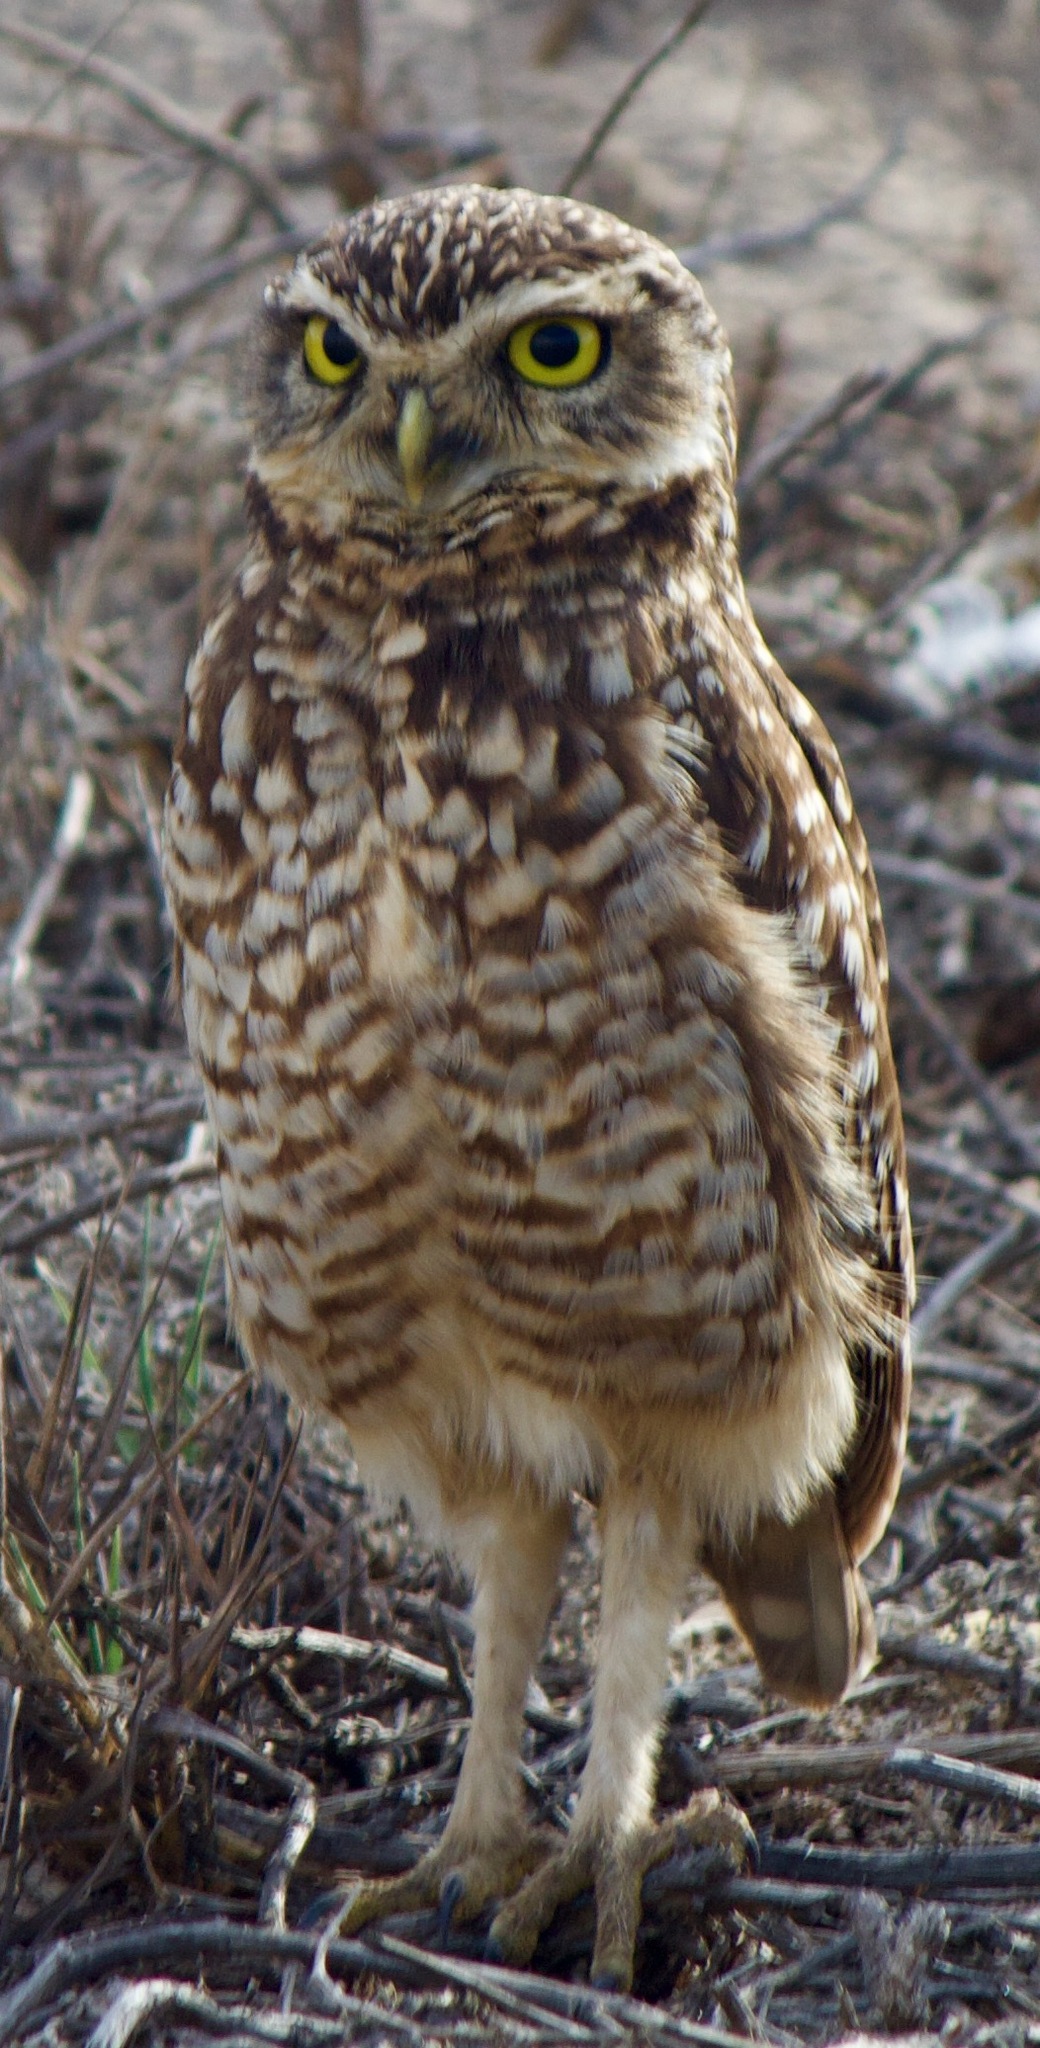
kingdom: Animalia
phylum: Chordata
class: Aves
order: Strigiformes
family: Strigidae
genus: Athene
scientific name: Athene cunicularia
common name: Burrowing owl
